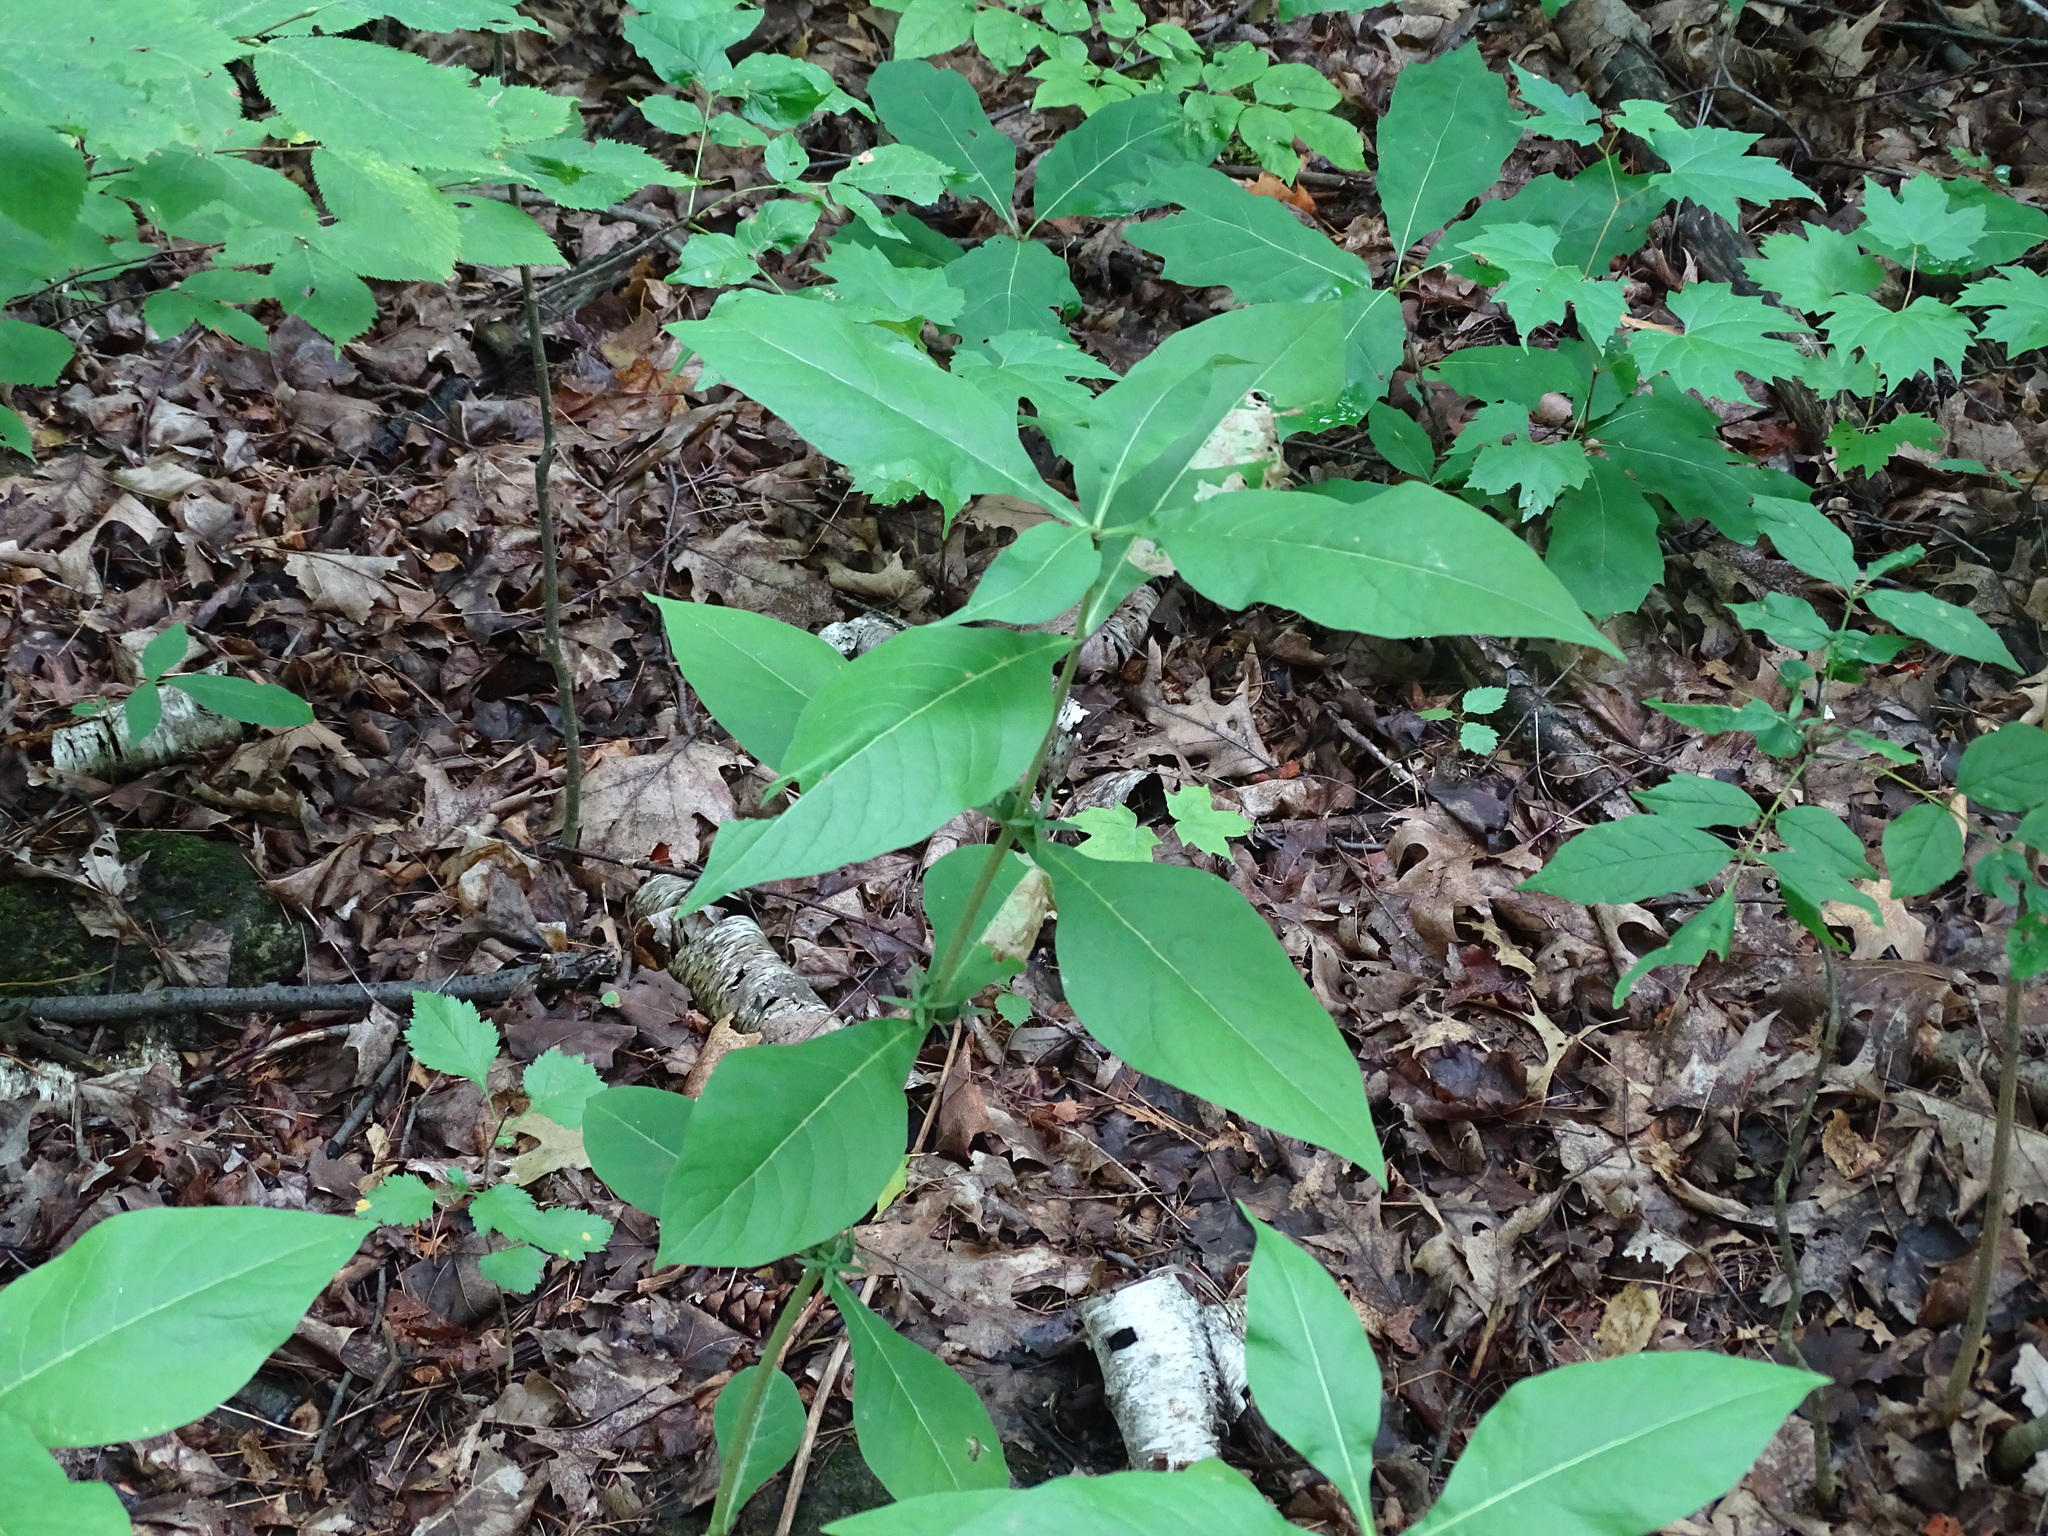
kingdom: Plantae
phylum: Tracheophyta
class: Magnoliopsida
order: Dipsacales
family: Caprifoliaceae
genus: Triosteum
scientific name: Triosteum aurantiacum
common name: Coffee tinker's-weed
